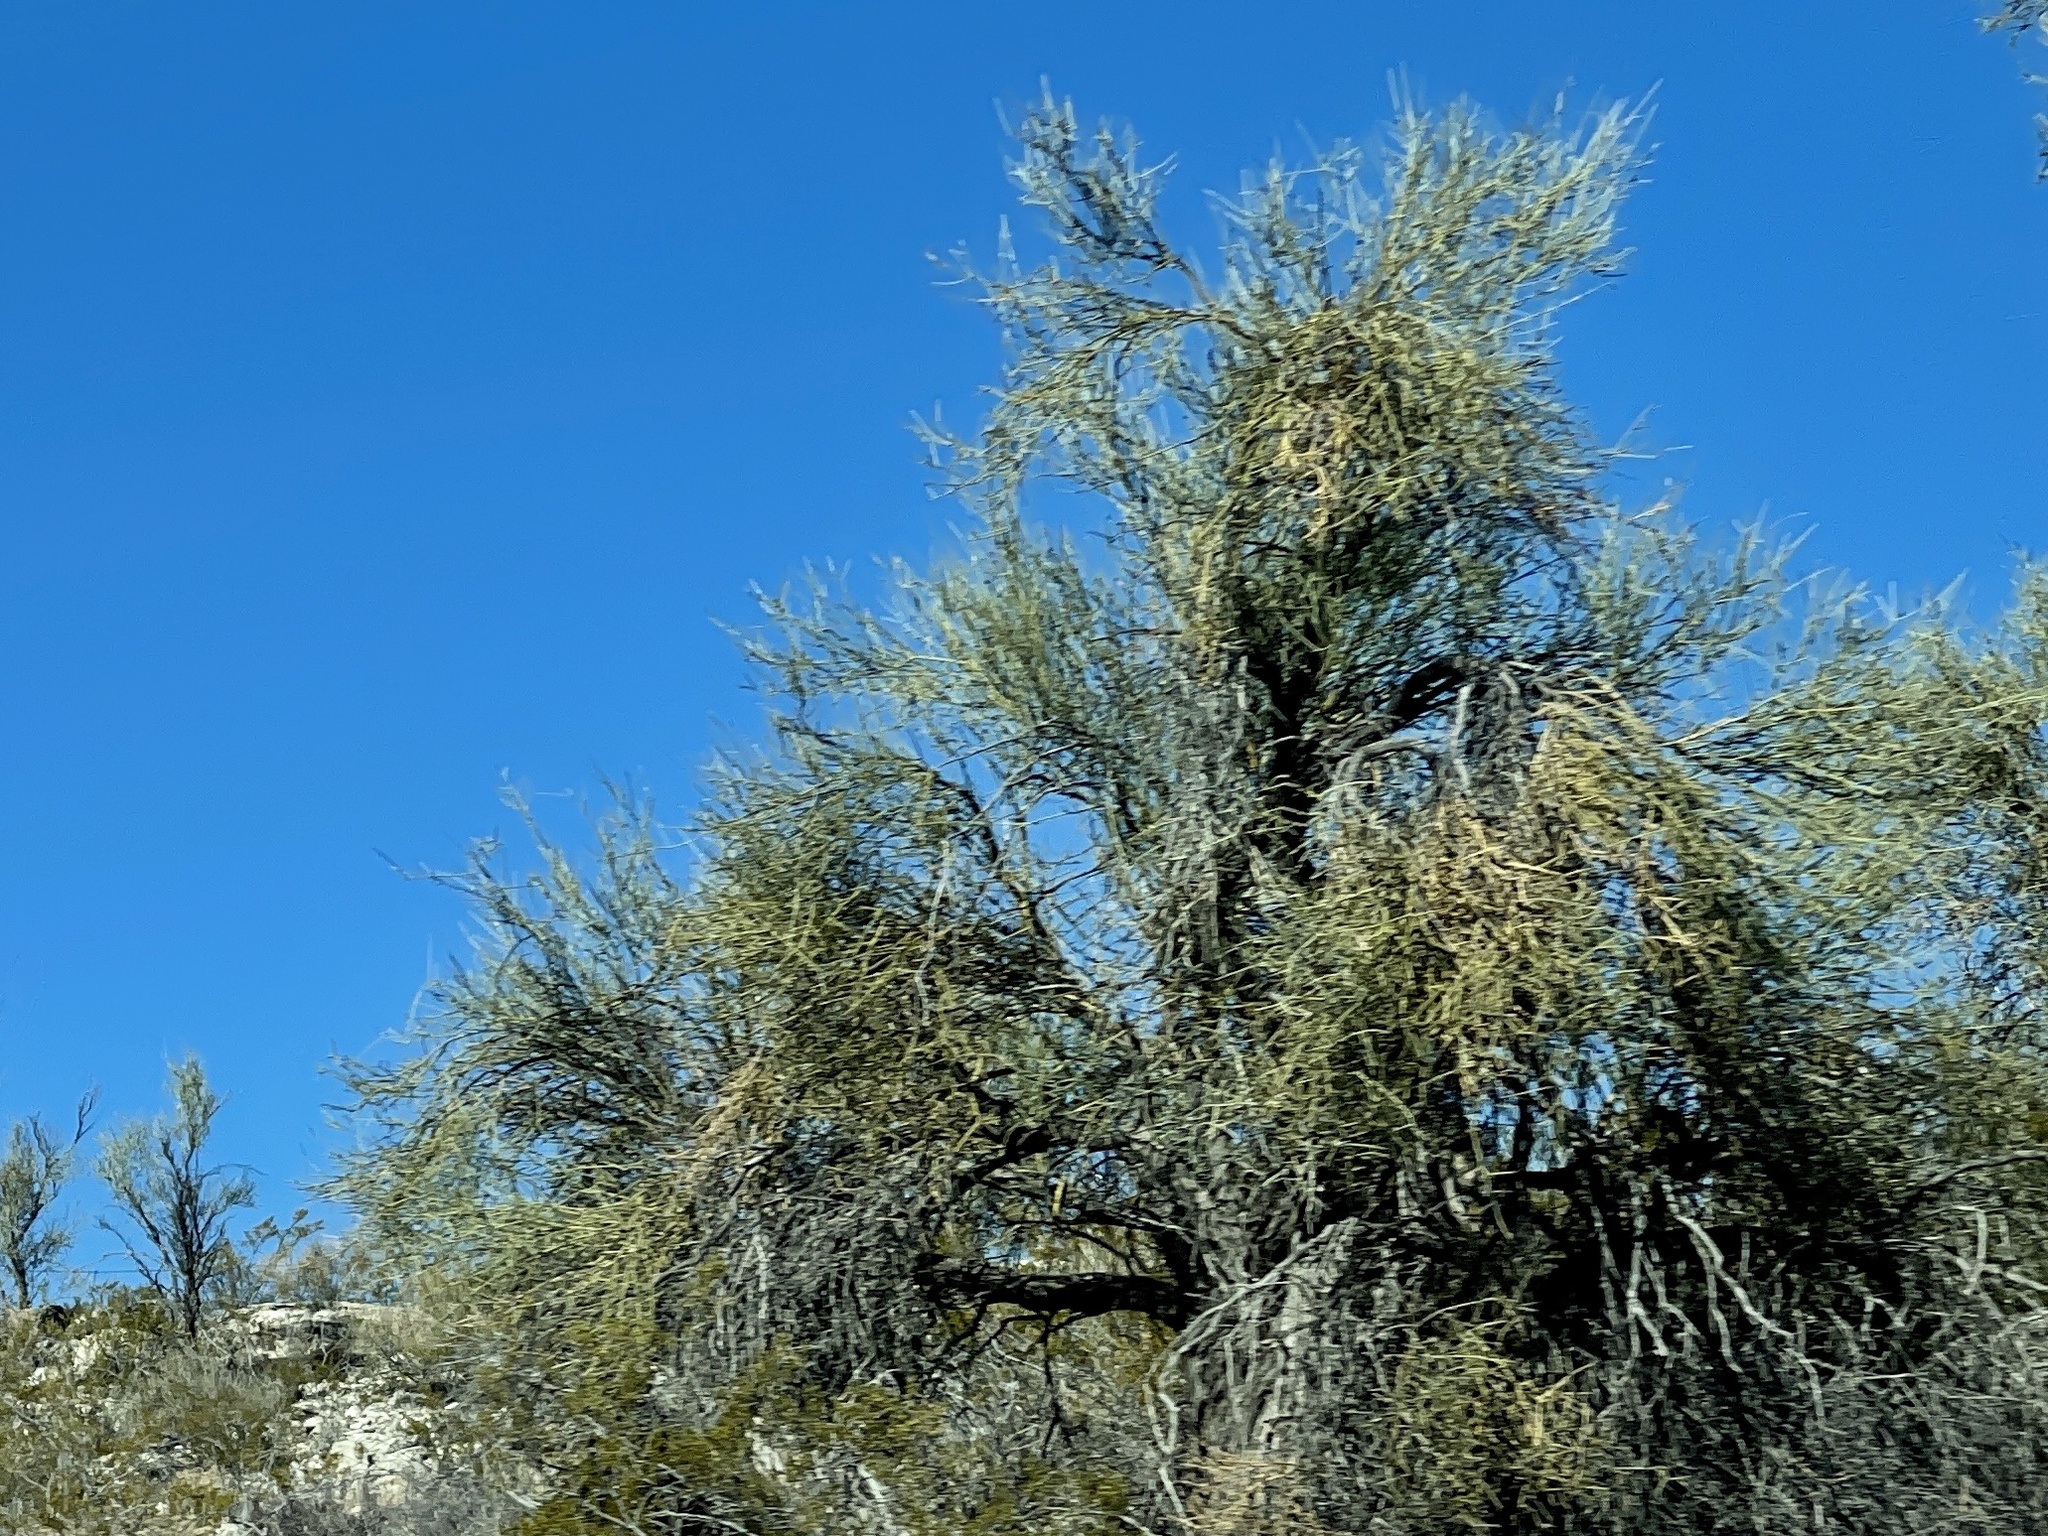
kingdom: Plantae
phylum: Tracheophyta
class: Magnoliopsida
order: Celastrales
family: Celastraceae
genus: Canotia
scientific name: Canotia holacantha
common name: Crucifixion thorns
